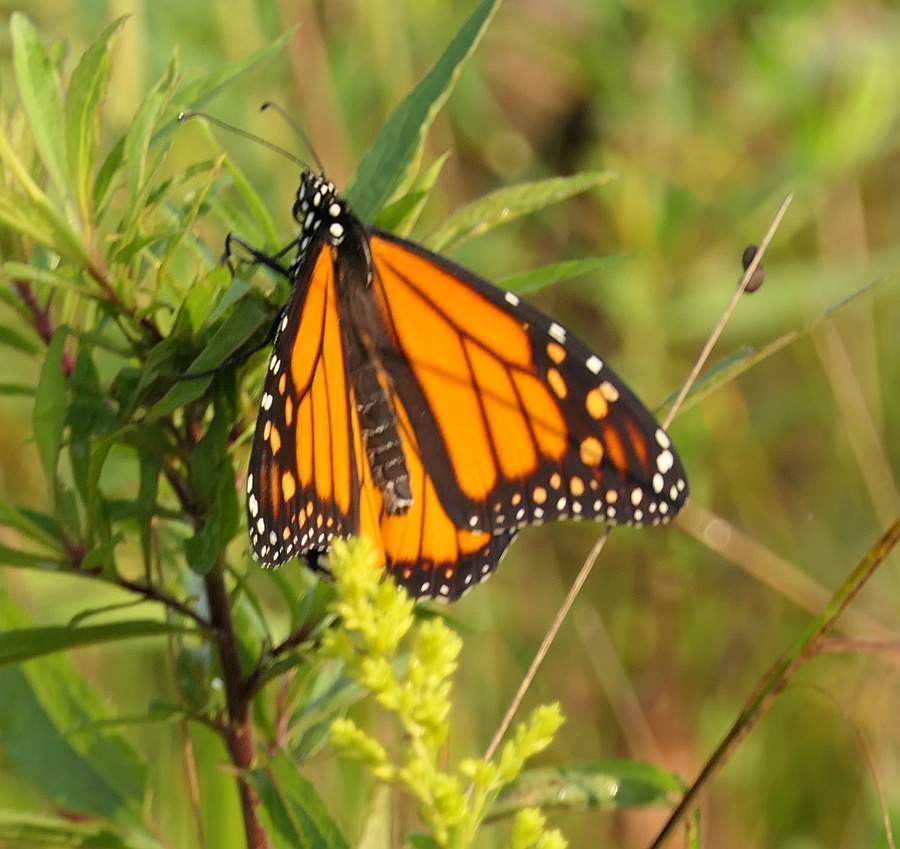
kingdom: Animalia
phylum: Arthropoda
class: Insecta
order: Lepidoptera
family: Nymphalidae
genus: Danaus
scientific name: Danaus plexippus
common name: Monarch
